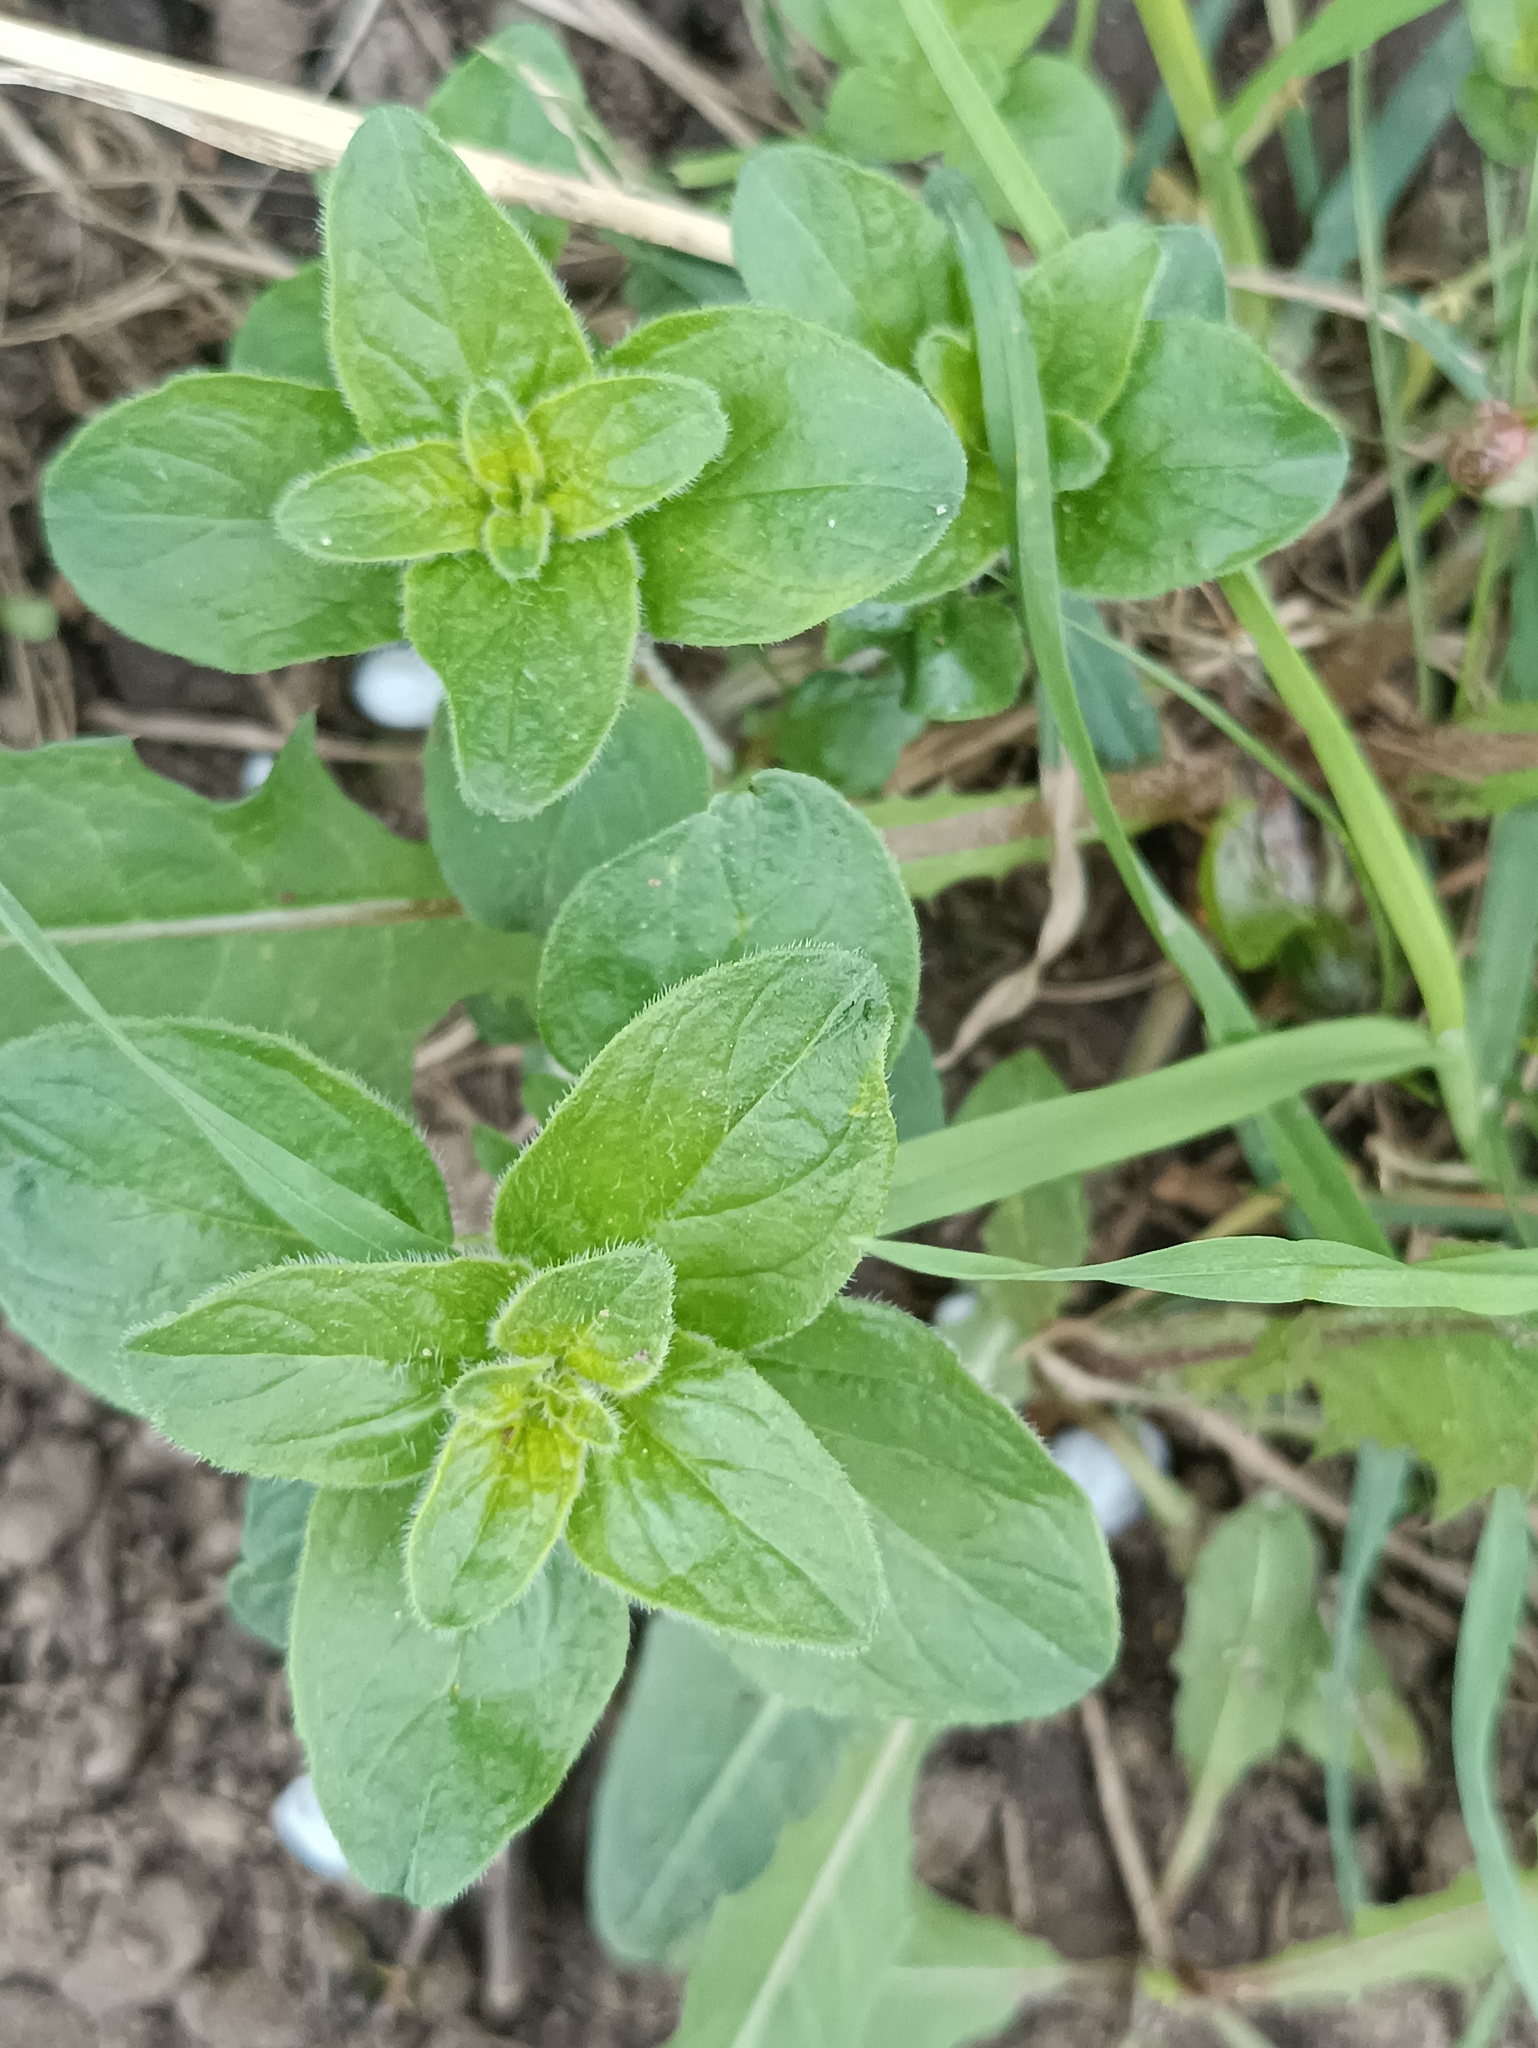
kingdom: Plantae
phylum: Tracheophyta
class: Magnoliopsida
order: Lamiales
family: Lamiaceae
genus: Origanum
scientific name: Origanum vulgare
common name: Wild marjoram
